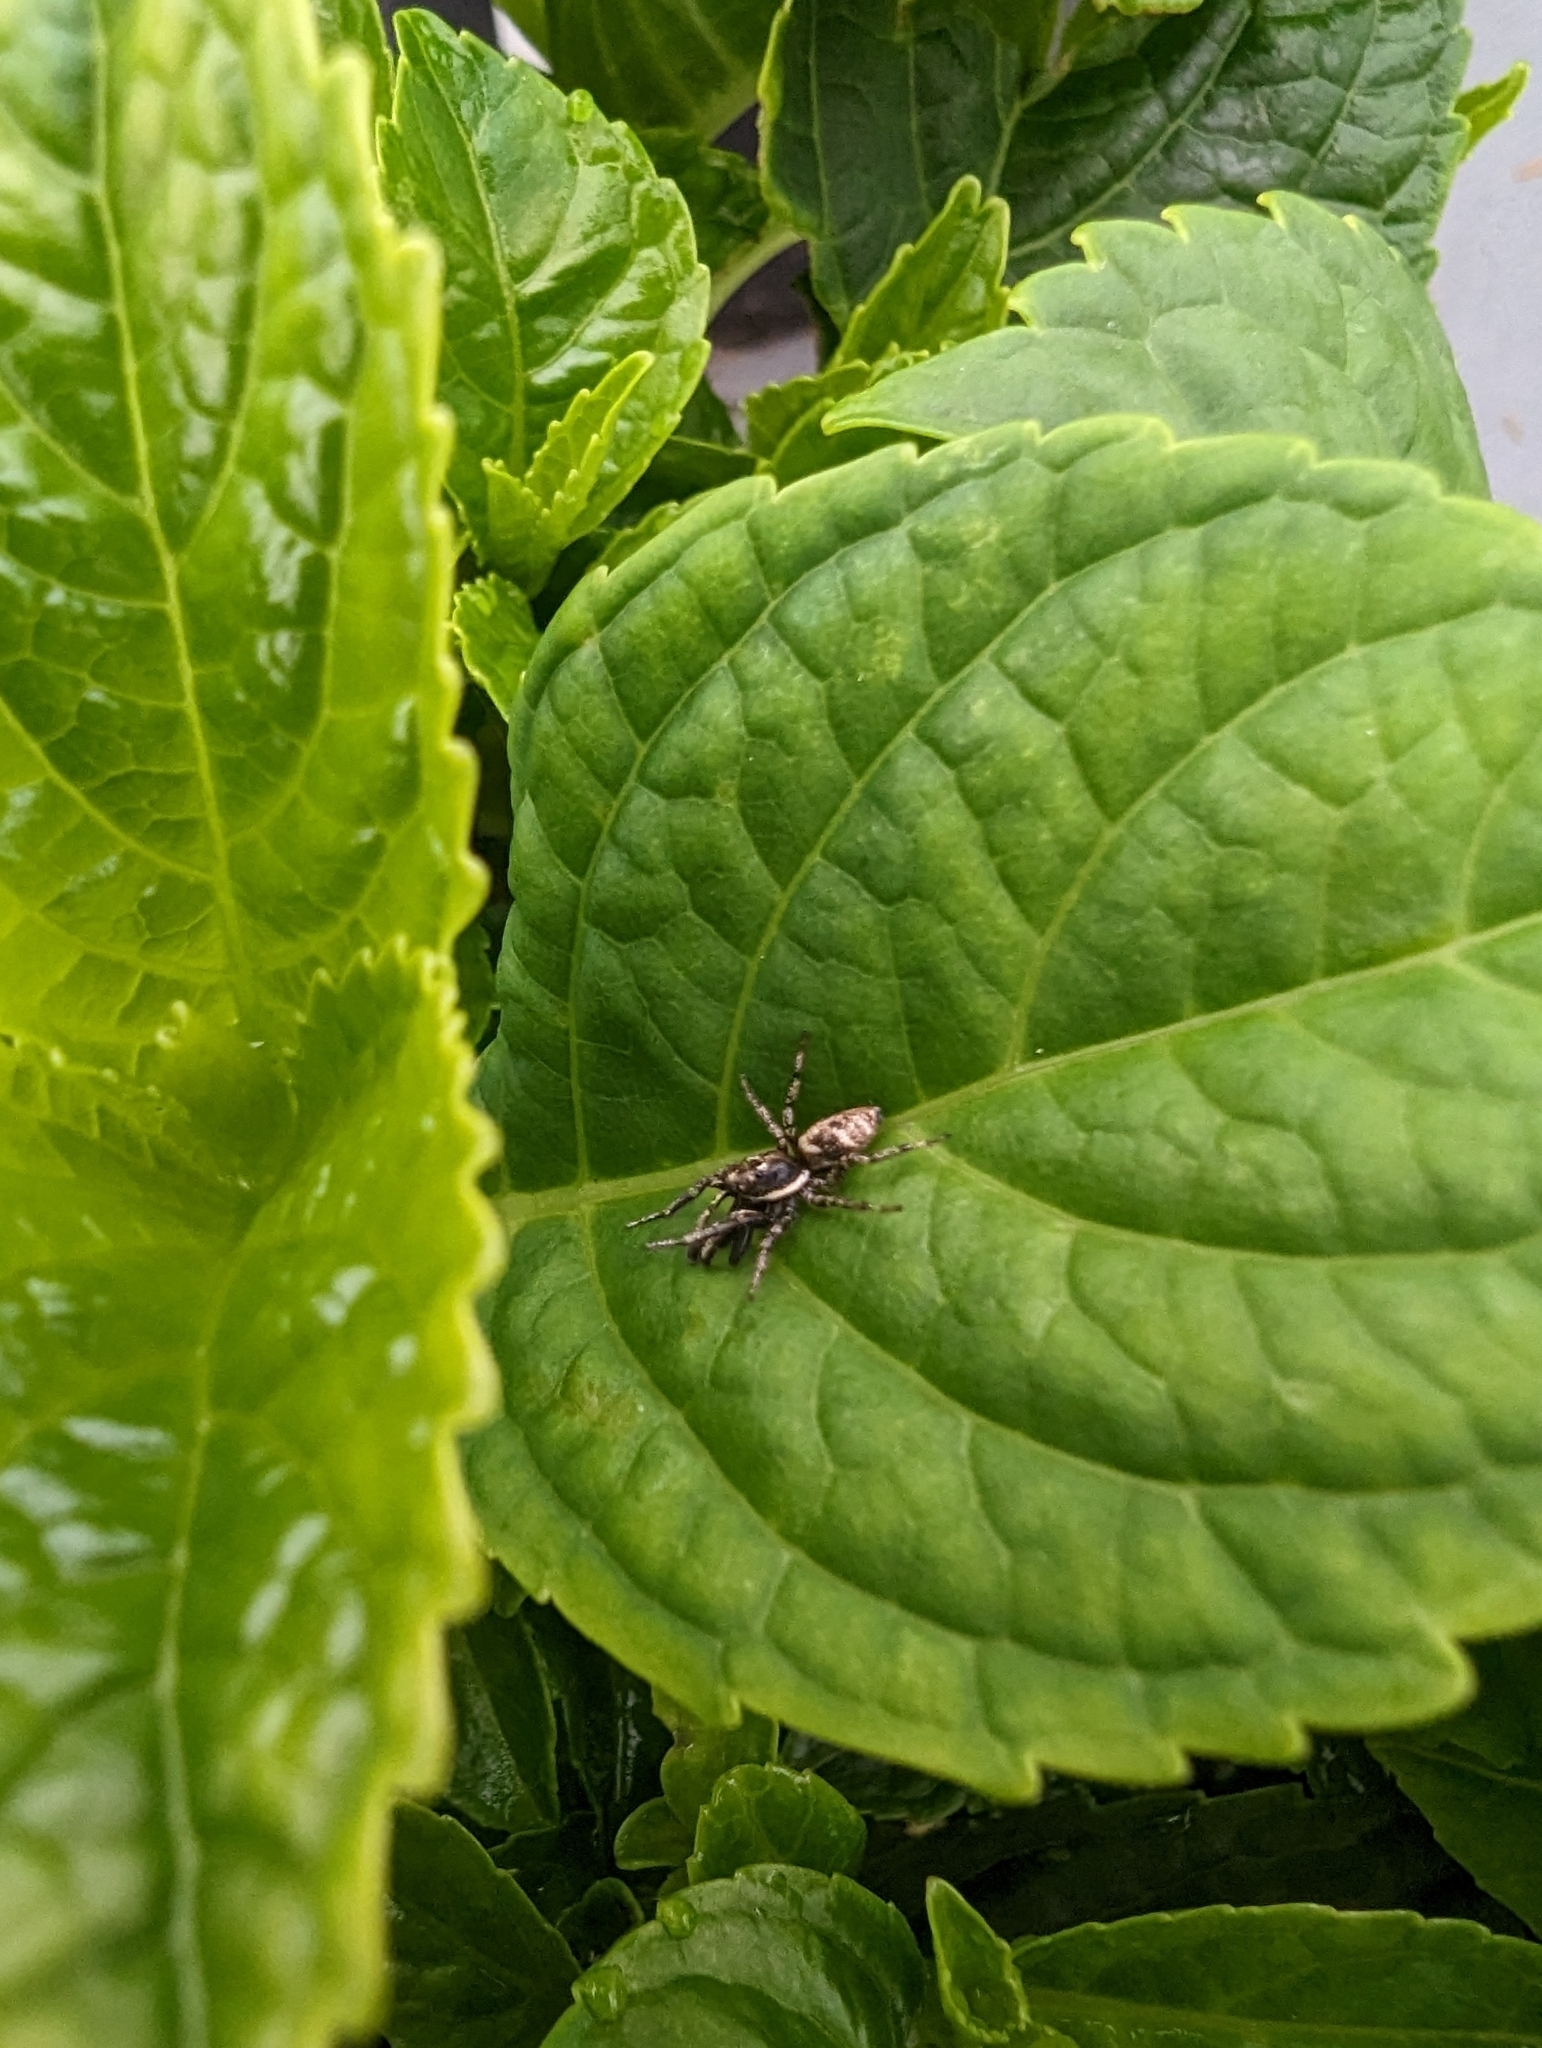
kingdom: Animalia
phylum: Arthropoda
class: Arachnida
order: Araneae
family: Salticidae
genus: Salticus
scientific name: Salticus scenicus
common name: Zebra jumper
